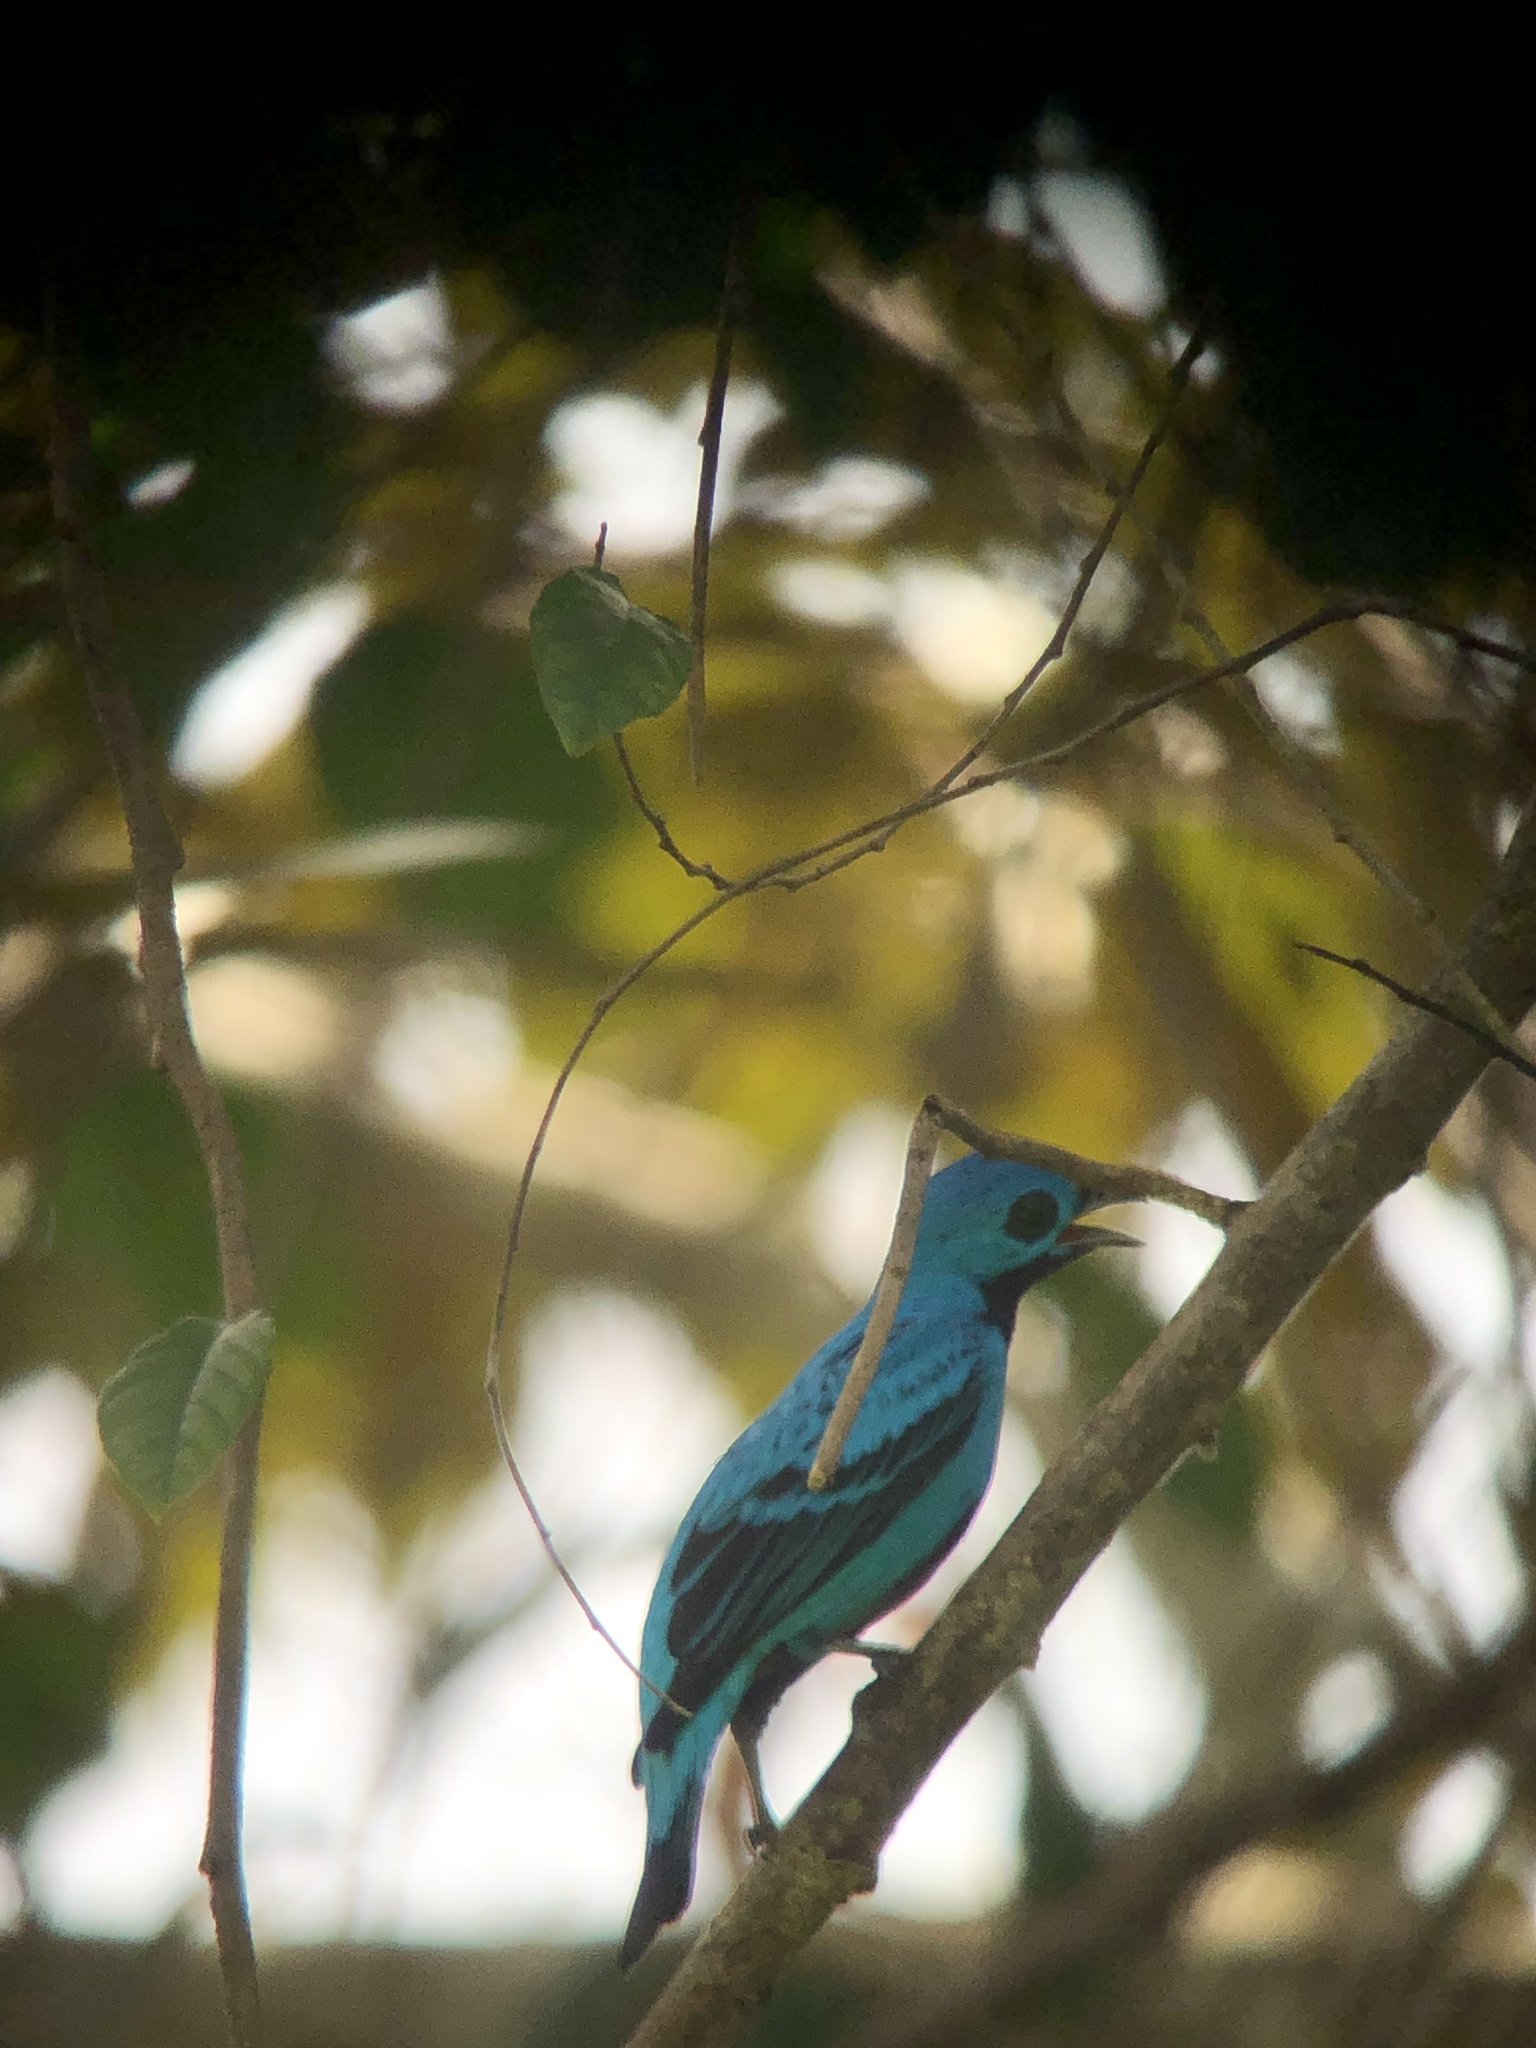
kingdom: Animalia
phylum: Chordata
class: Aves
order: Passeriformes
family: Cotingidae
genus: Cotinga
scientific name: Cotinga nattererii
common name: Blue cotinga
